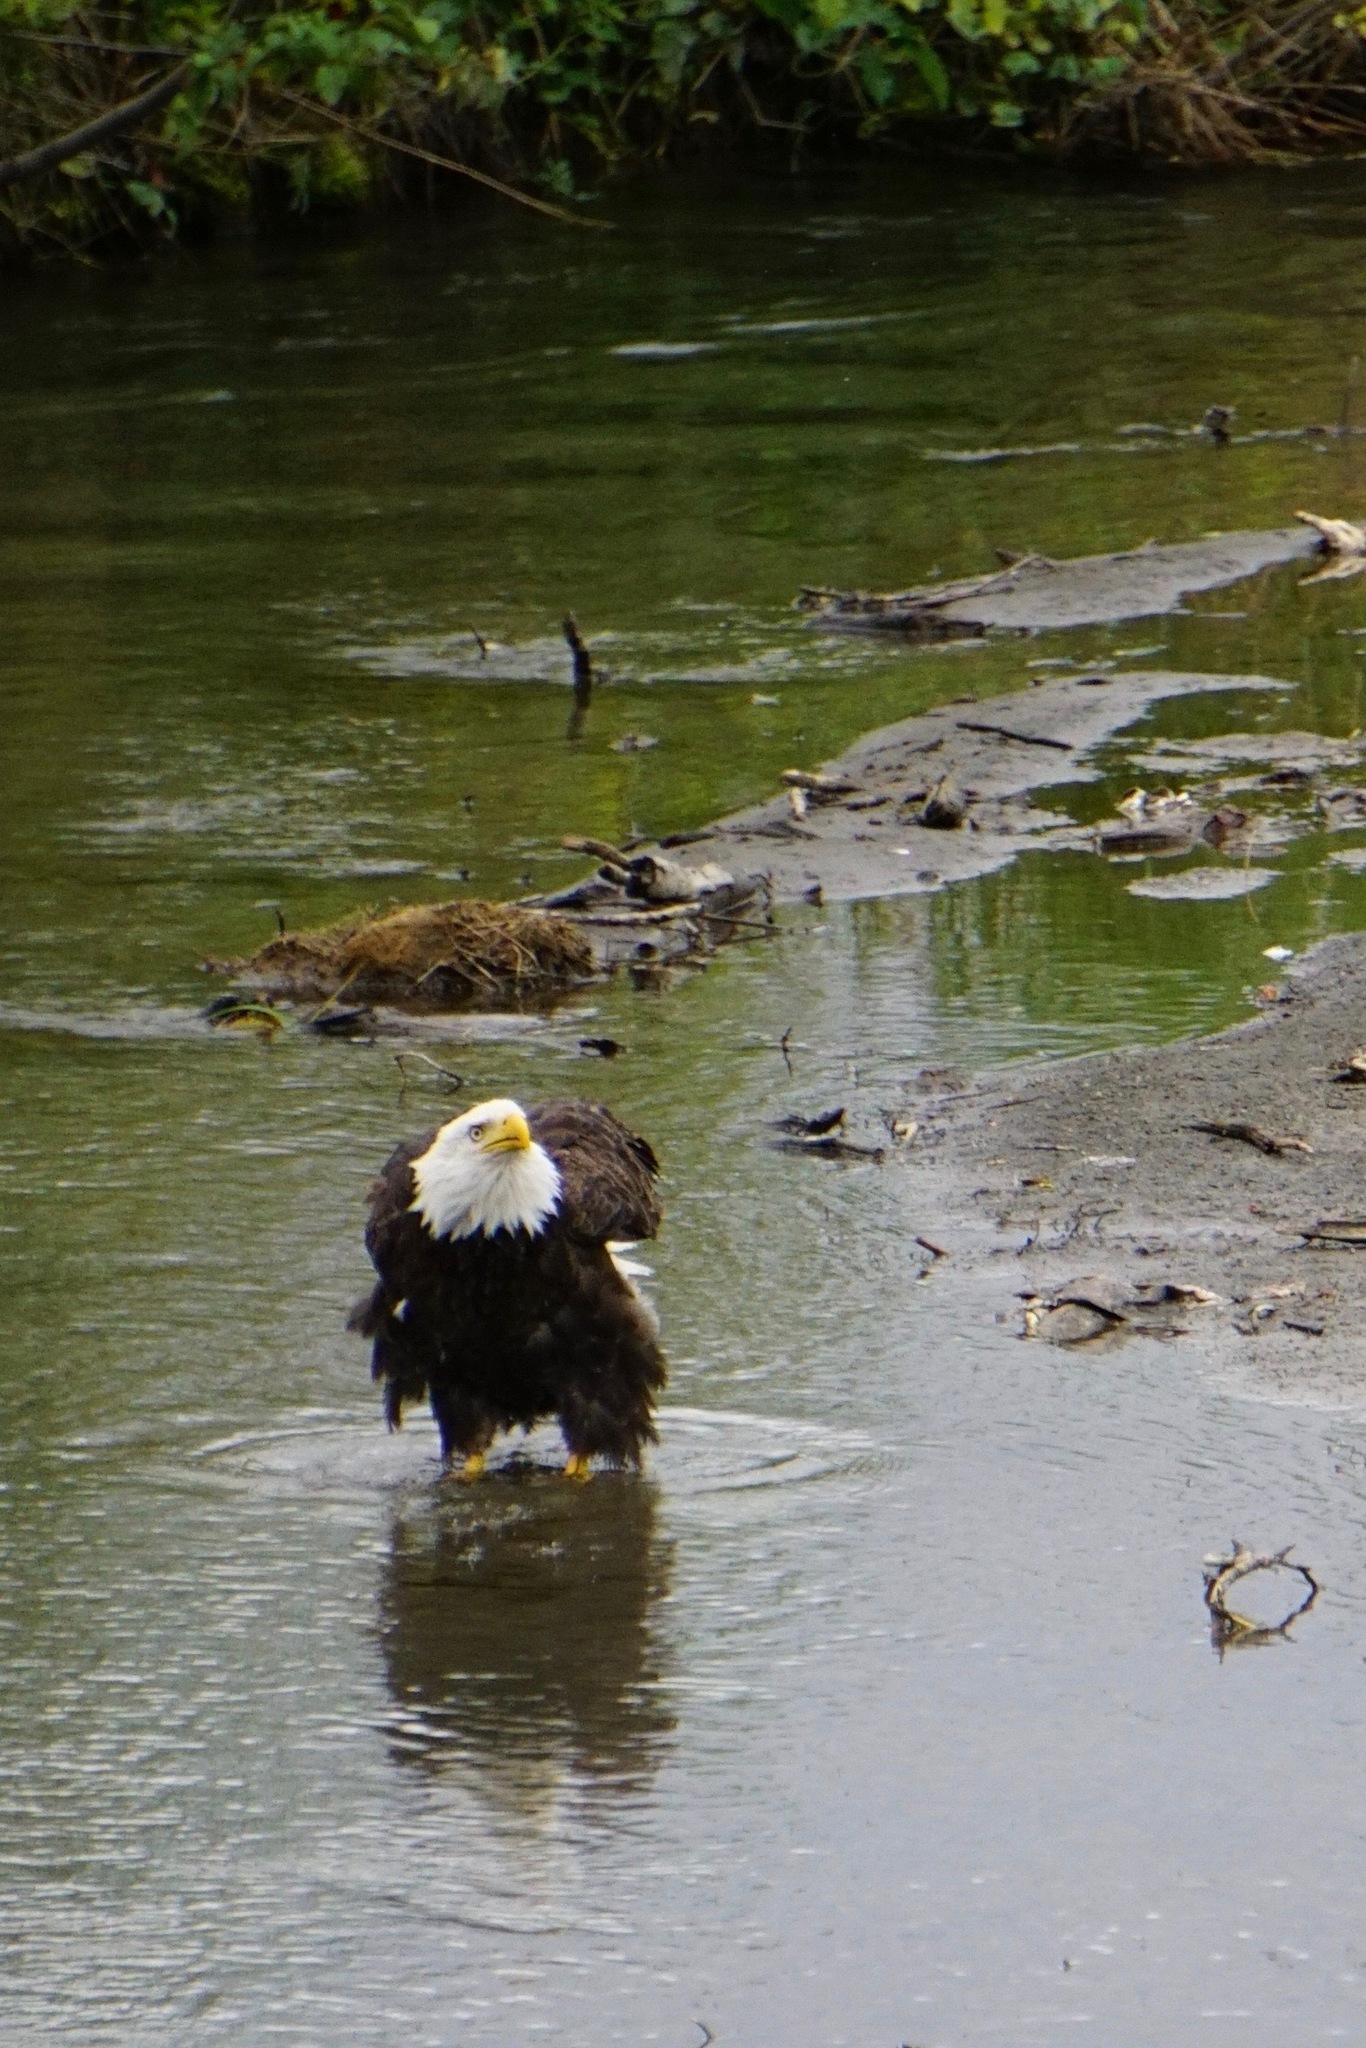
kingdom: Animalia
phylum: Chordata
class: Aves
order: Accipitriformes
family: Accipitridae
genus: Haliaeetus
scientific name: Haliaeetus leucocephalus
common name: Bald eagle
